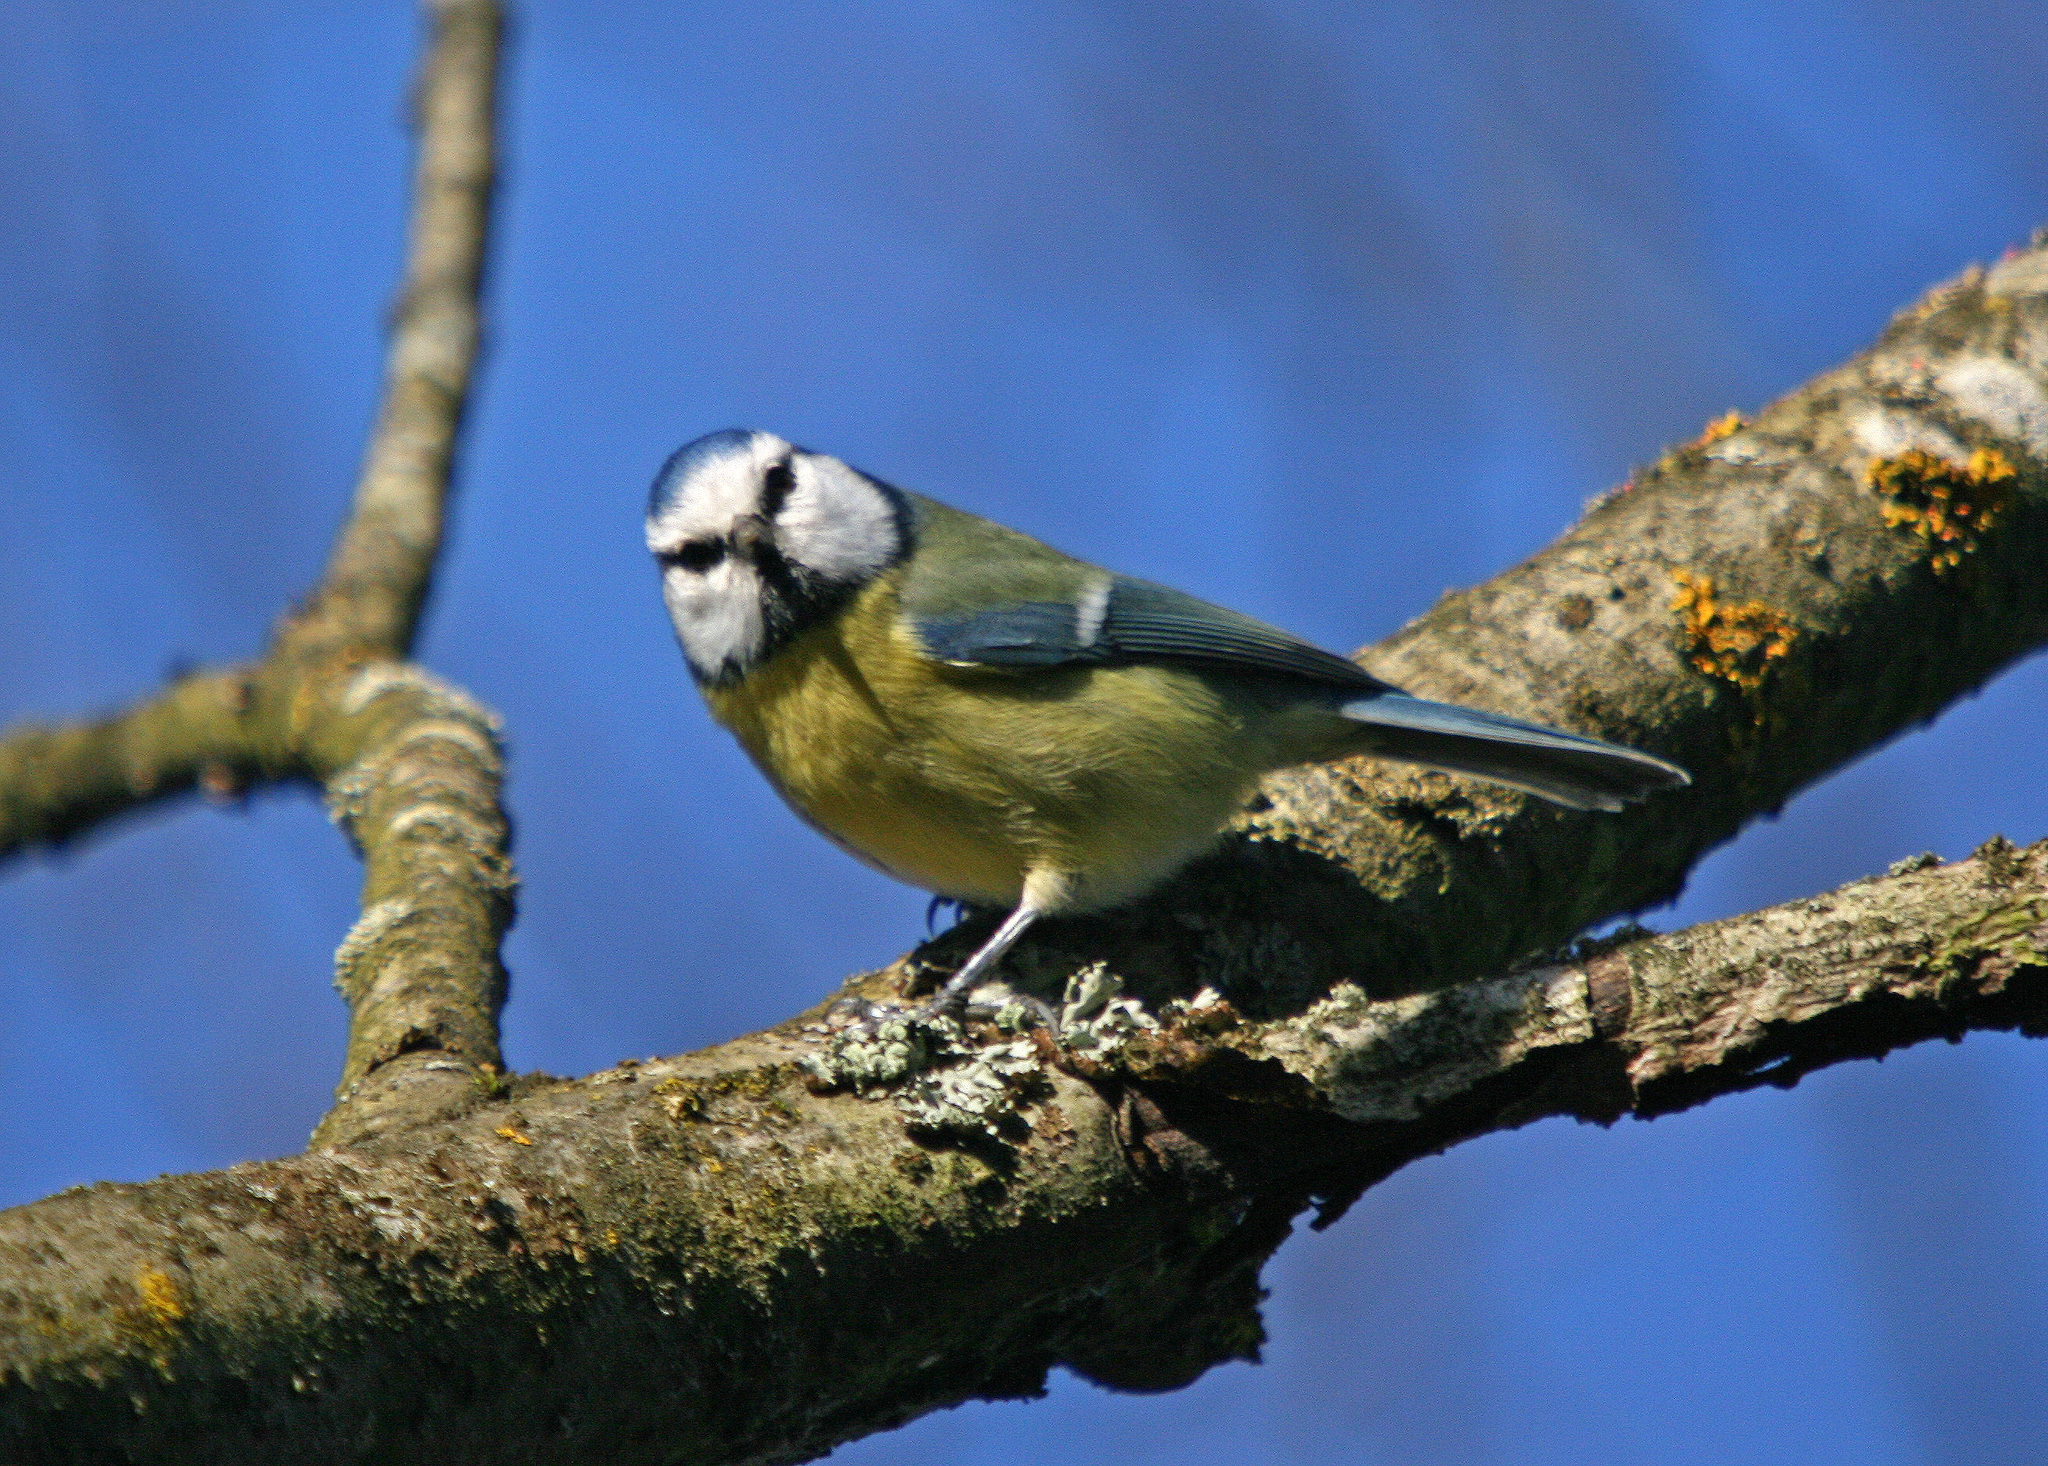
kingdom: Animalia
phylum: Chordata
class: Aves
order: Passeriformes
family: Paridae
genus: Cyanistes
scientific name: Cyanistes caeruleus
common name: Eurasian blue tit
